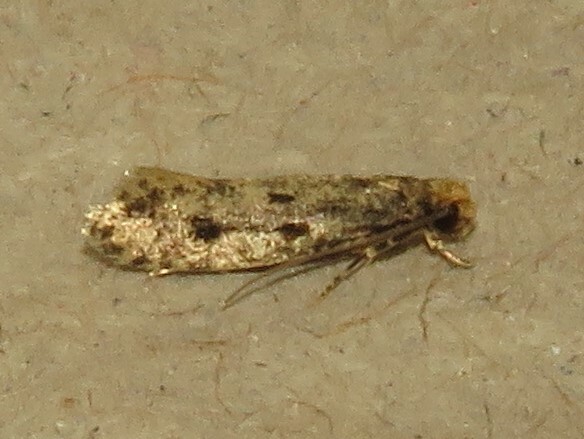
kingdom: Animalia
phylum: Arthropoda
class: Insecta
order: Lepidoptera
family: Tineidae
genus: Niditinea
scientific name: Niditinea orleansella
